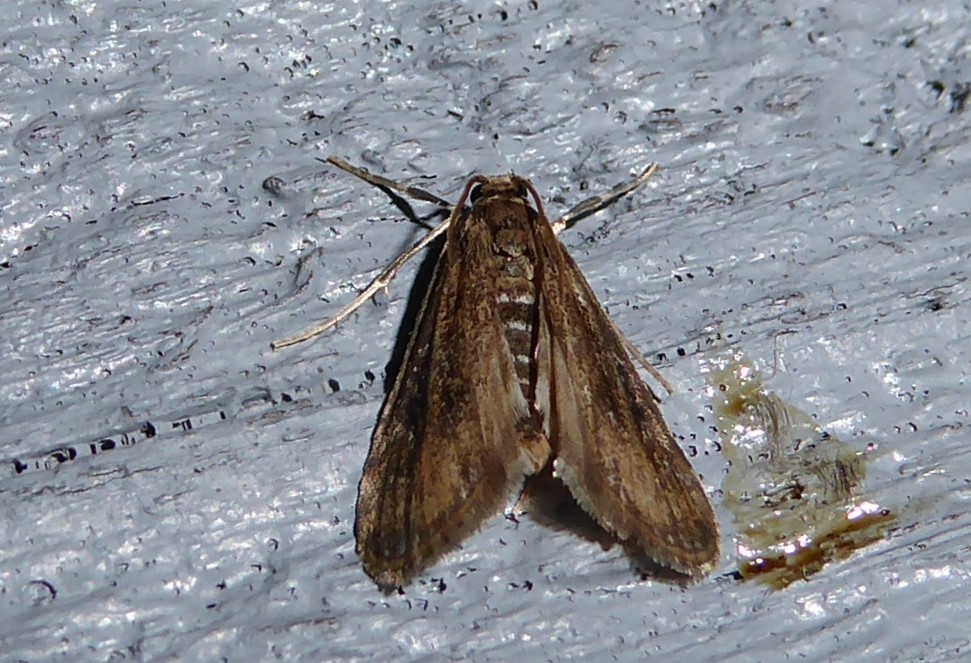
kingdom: Animalia
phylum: Arthropoda
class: Insecta
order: Lepidoptera
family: Crambidae
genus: Hygraula
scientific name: Hygraula nitens
